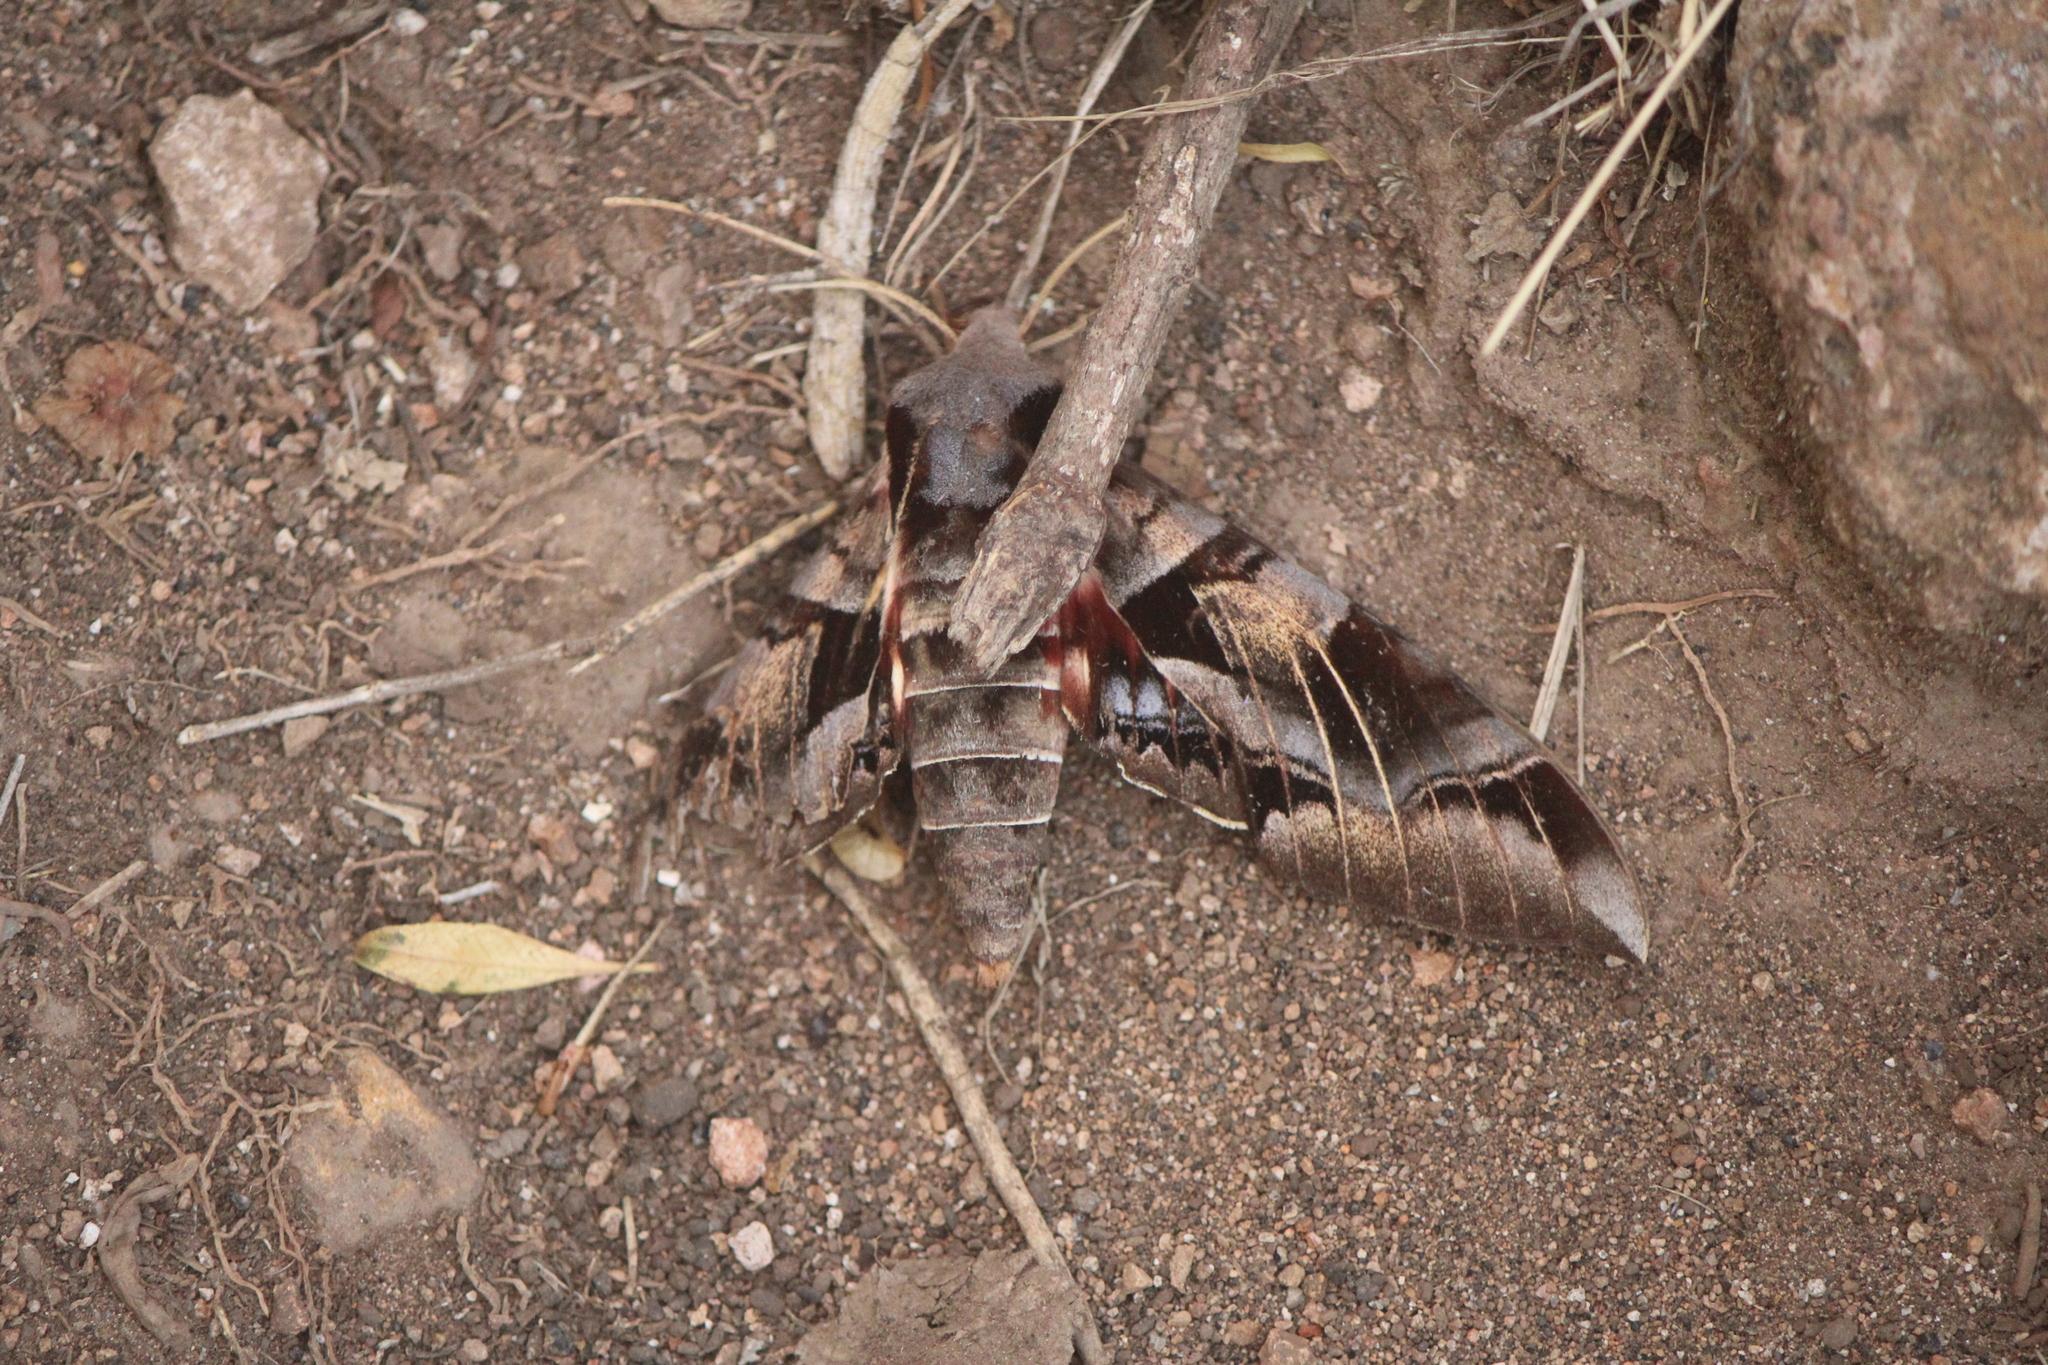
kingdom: Animalia
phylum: Arthropoda
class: Insecta
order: Lepidoptera
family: Sphingidae
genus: Eumorpha
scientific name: Eumorpha typhon
